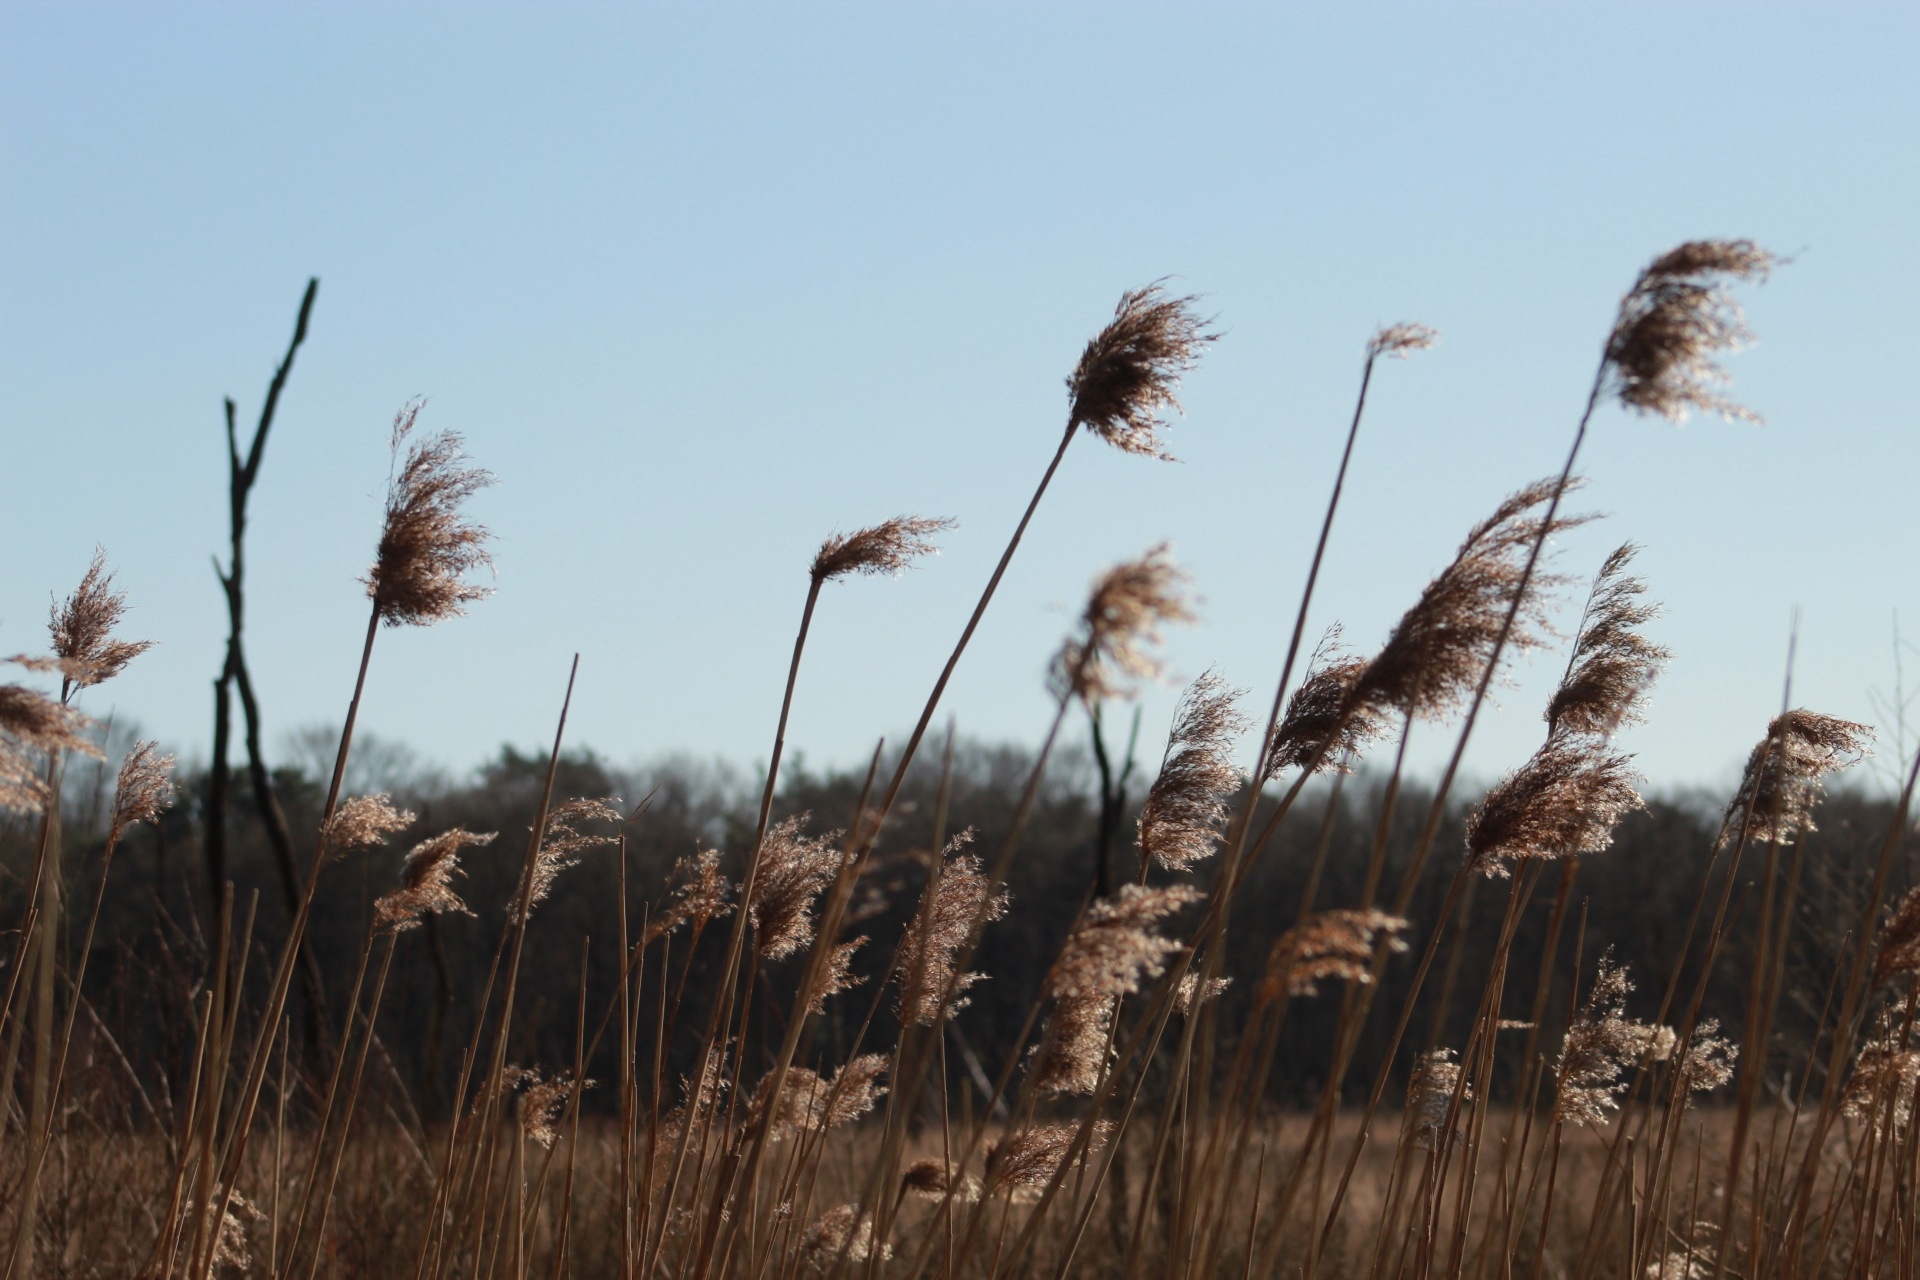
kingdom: Plantae
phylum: Tracheophyta
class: Liliopsida
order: Poales
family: Poaceae
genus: Phragmites
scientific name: Phragmites australis
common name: Common reed
